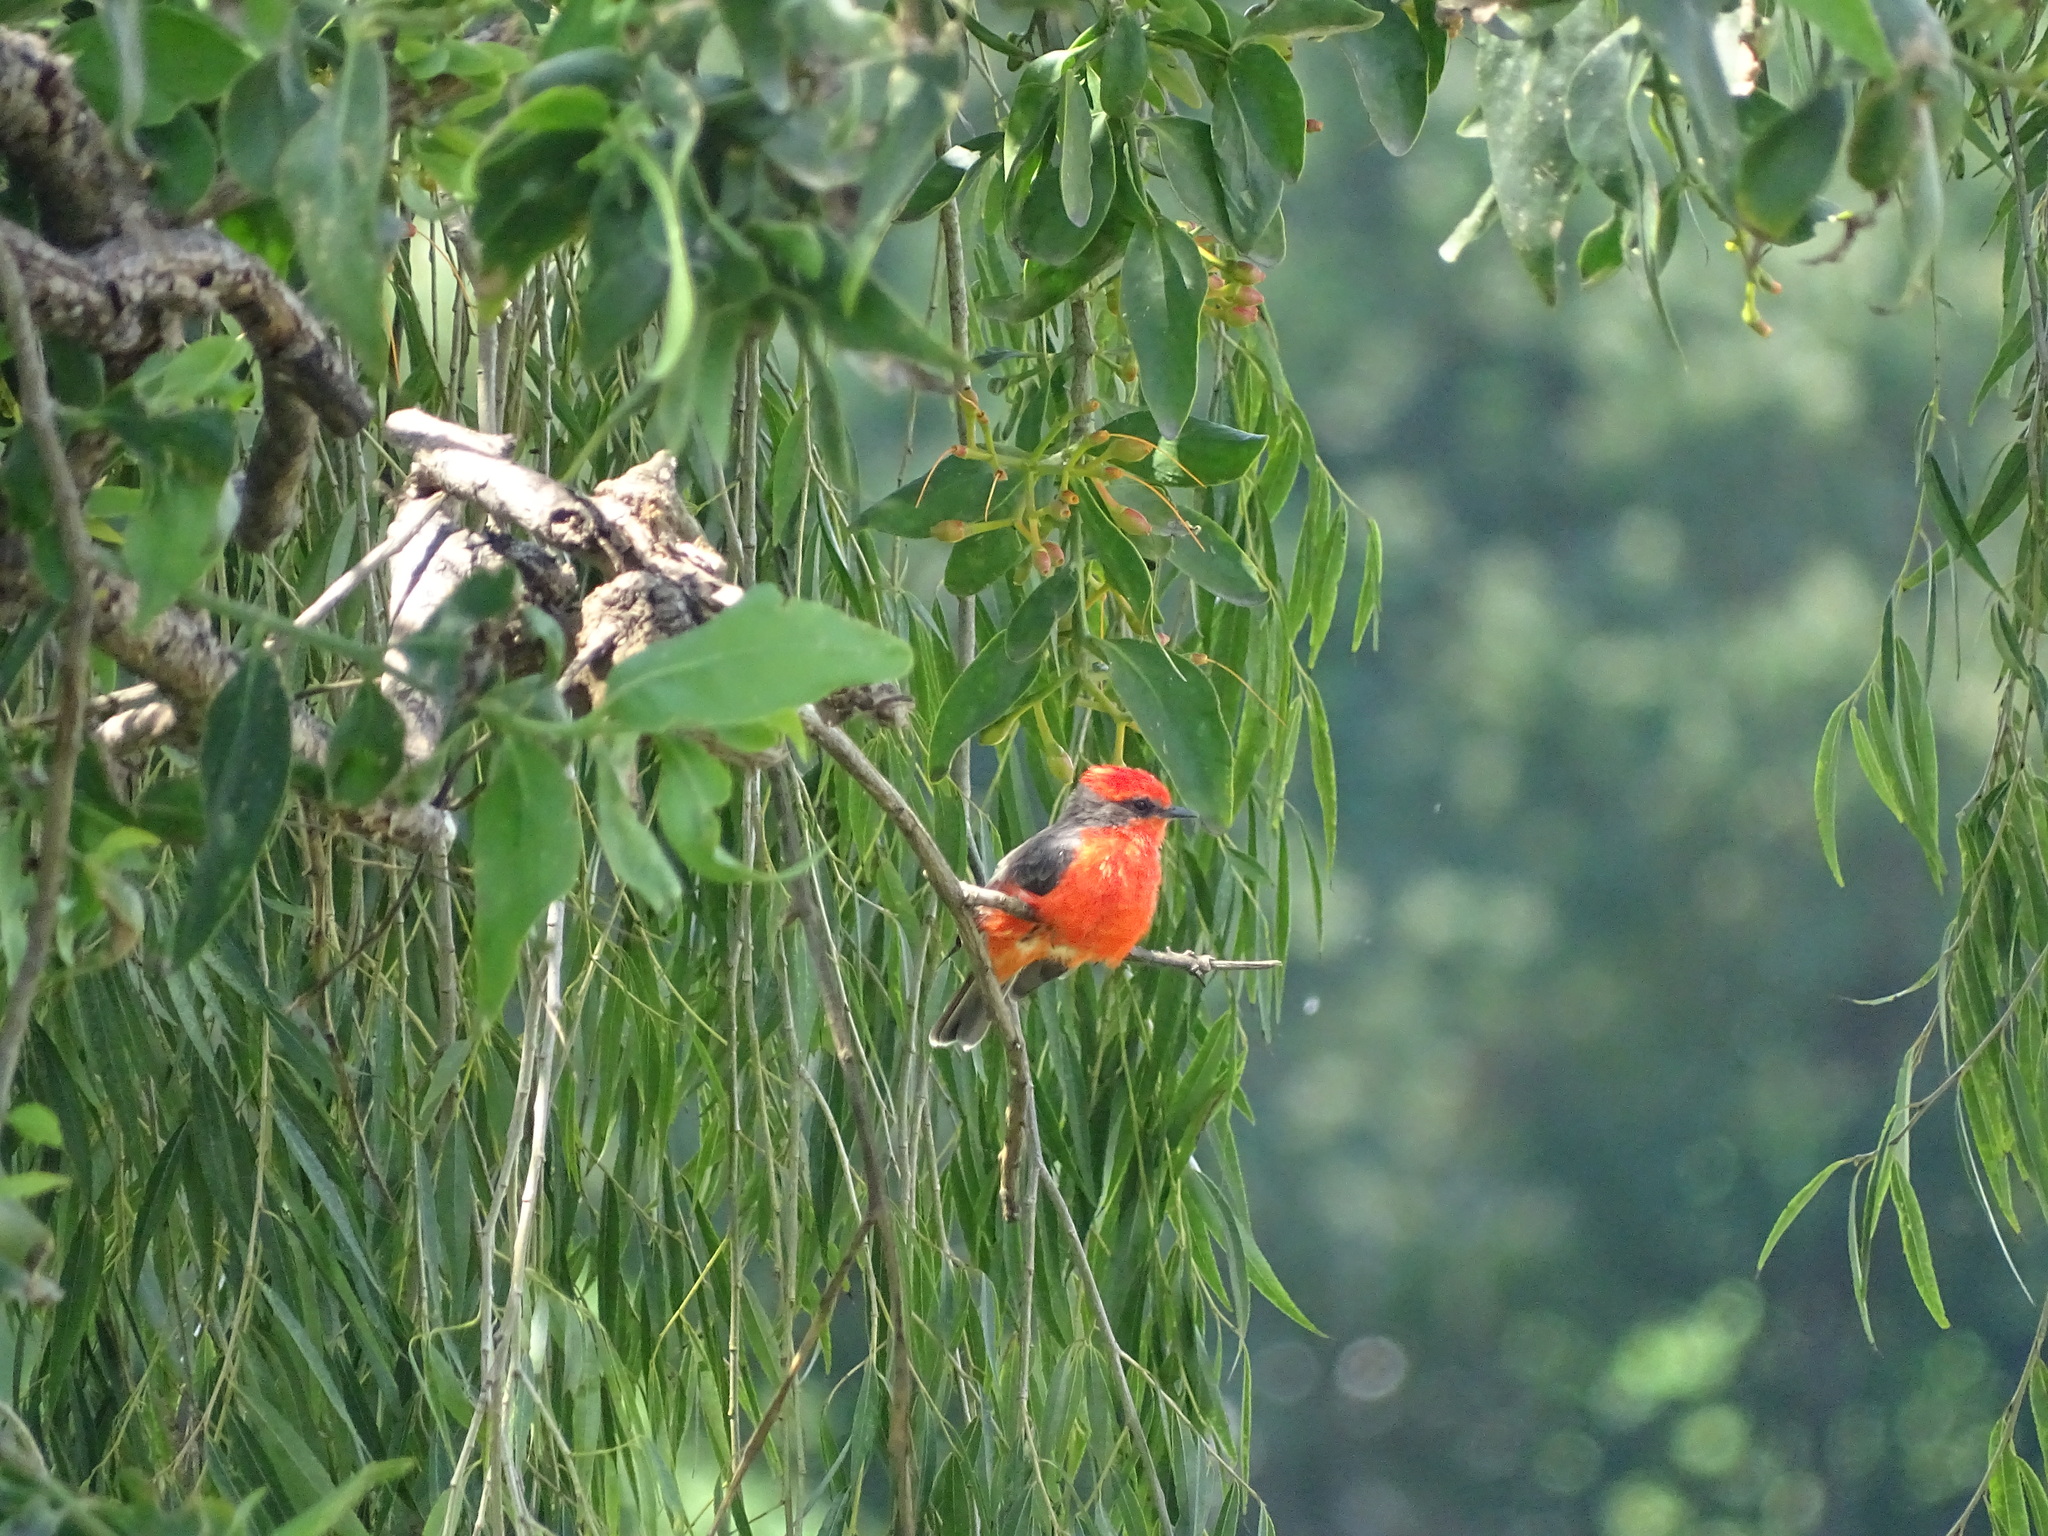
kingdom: Animalia
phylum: Chordata
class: Aves
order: Passeriformes
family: Tyrannidae
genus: Pyrocephalus
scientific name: Pyrocephalus rubinus
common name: Vermilion flycatcher
